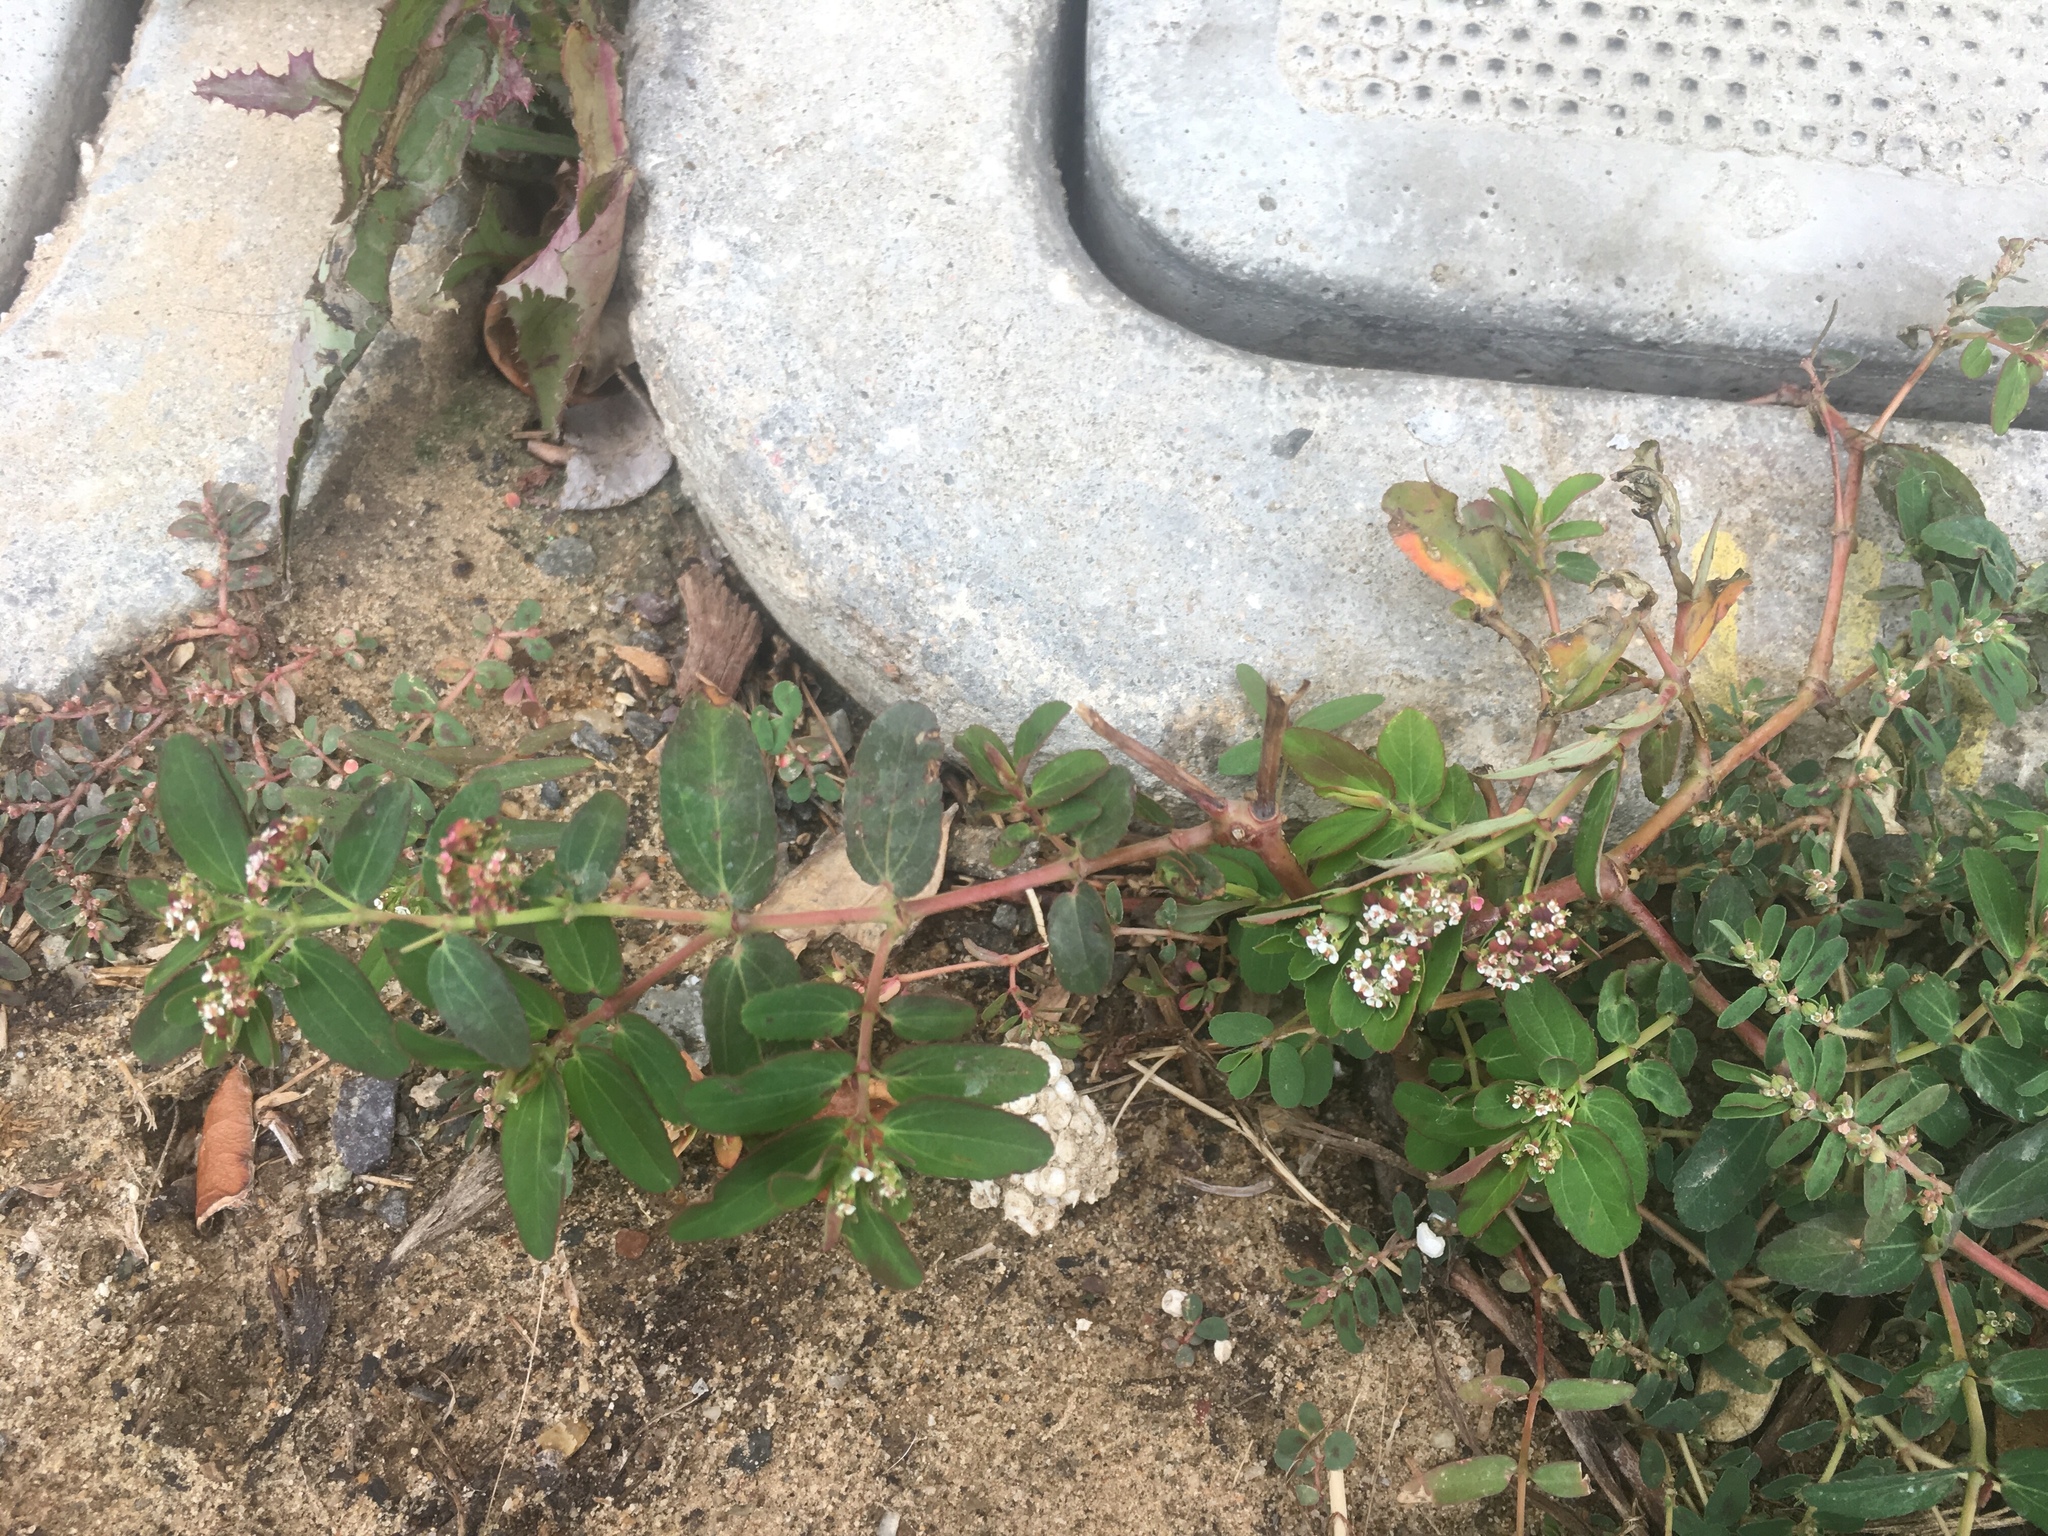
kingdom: Plantae
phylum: Tracheophyta
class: Magnoliopsida
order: Malpighiales
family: Euphorbiaceae
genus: Euphorbia
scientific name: Euphorbia hypericifolia
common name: Graceful sandmat
